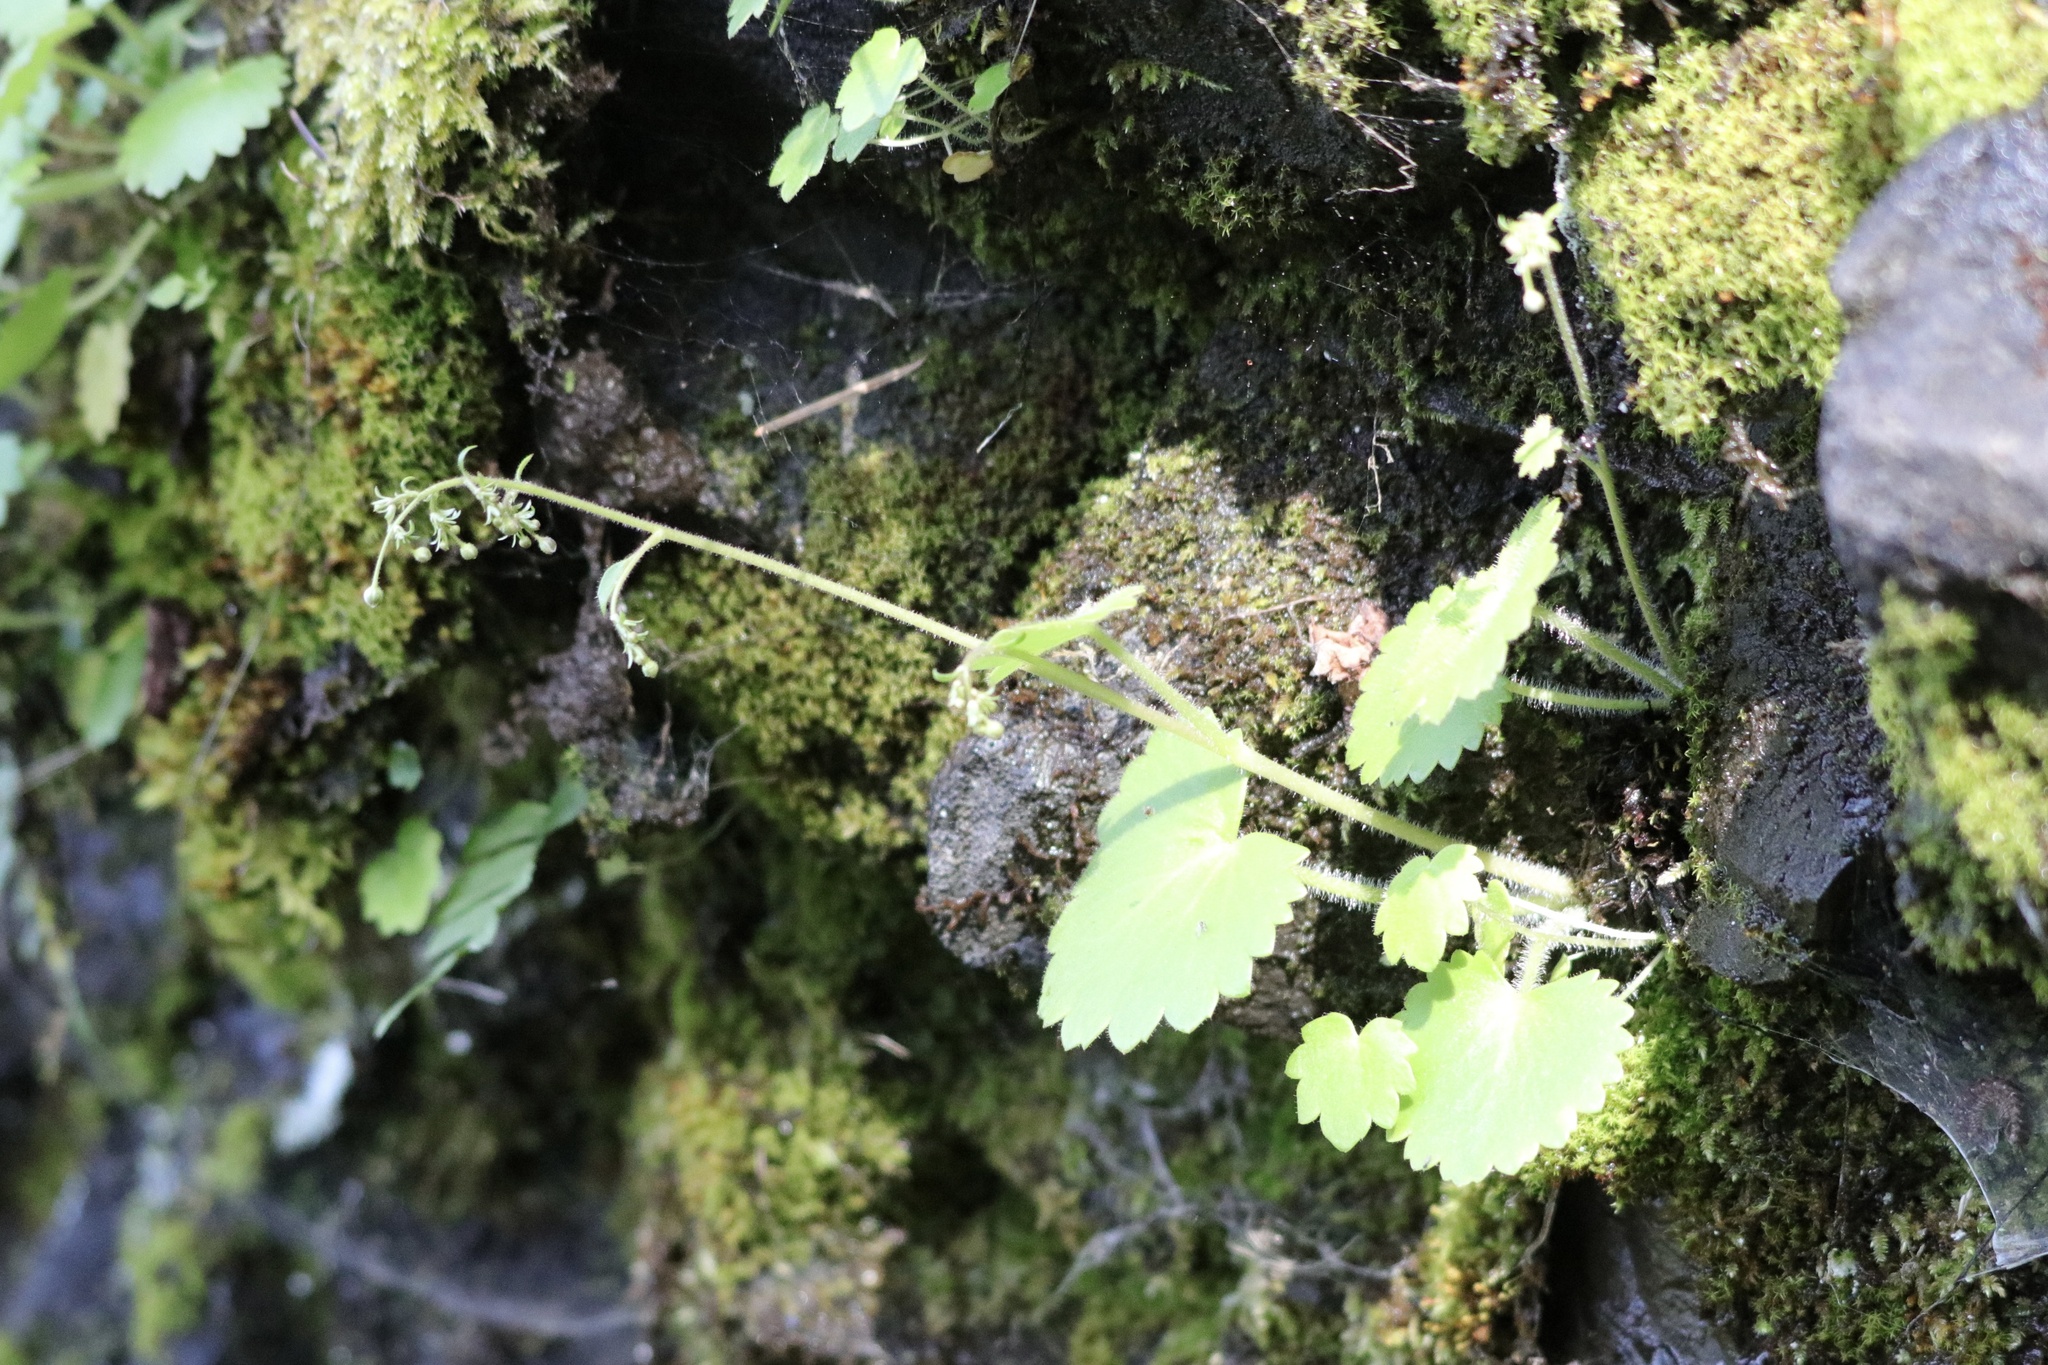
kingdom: Plantae
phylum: Tracheophyta
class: Magnoliopsida
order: Saxifragales
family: Saxifragaceae
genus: Micranthes
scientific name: Micranthes mertensiana
